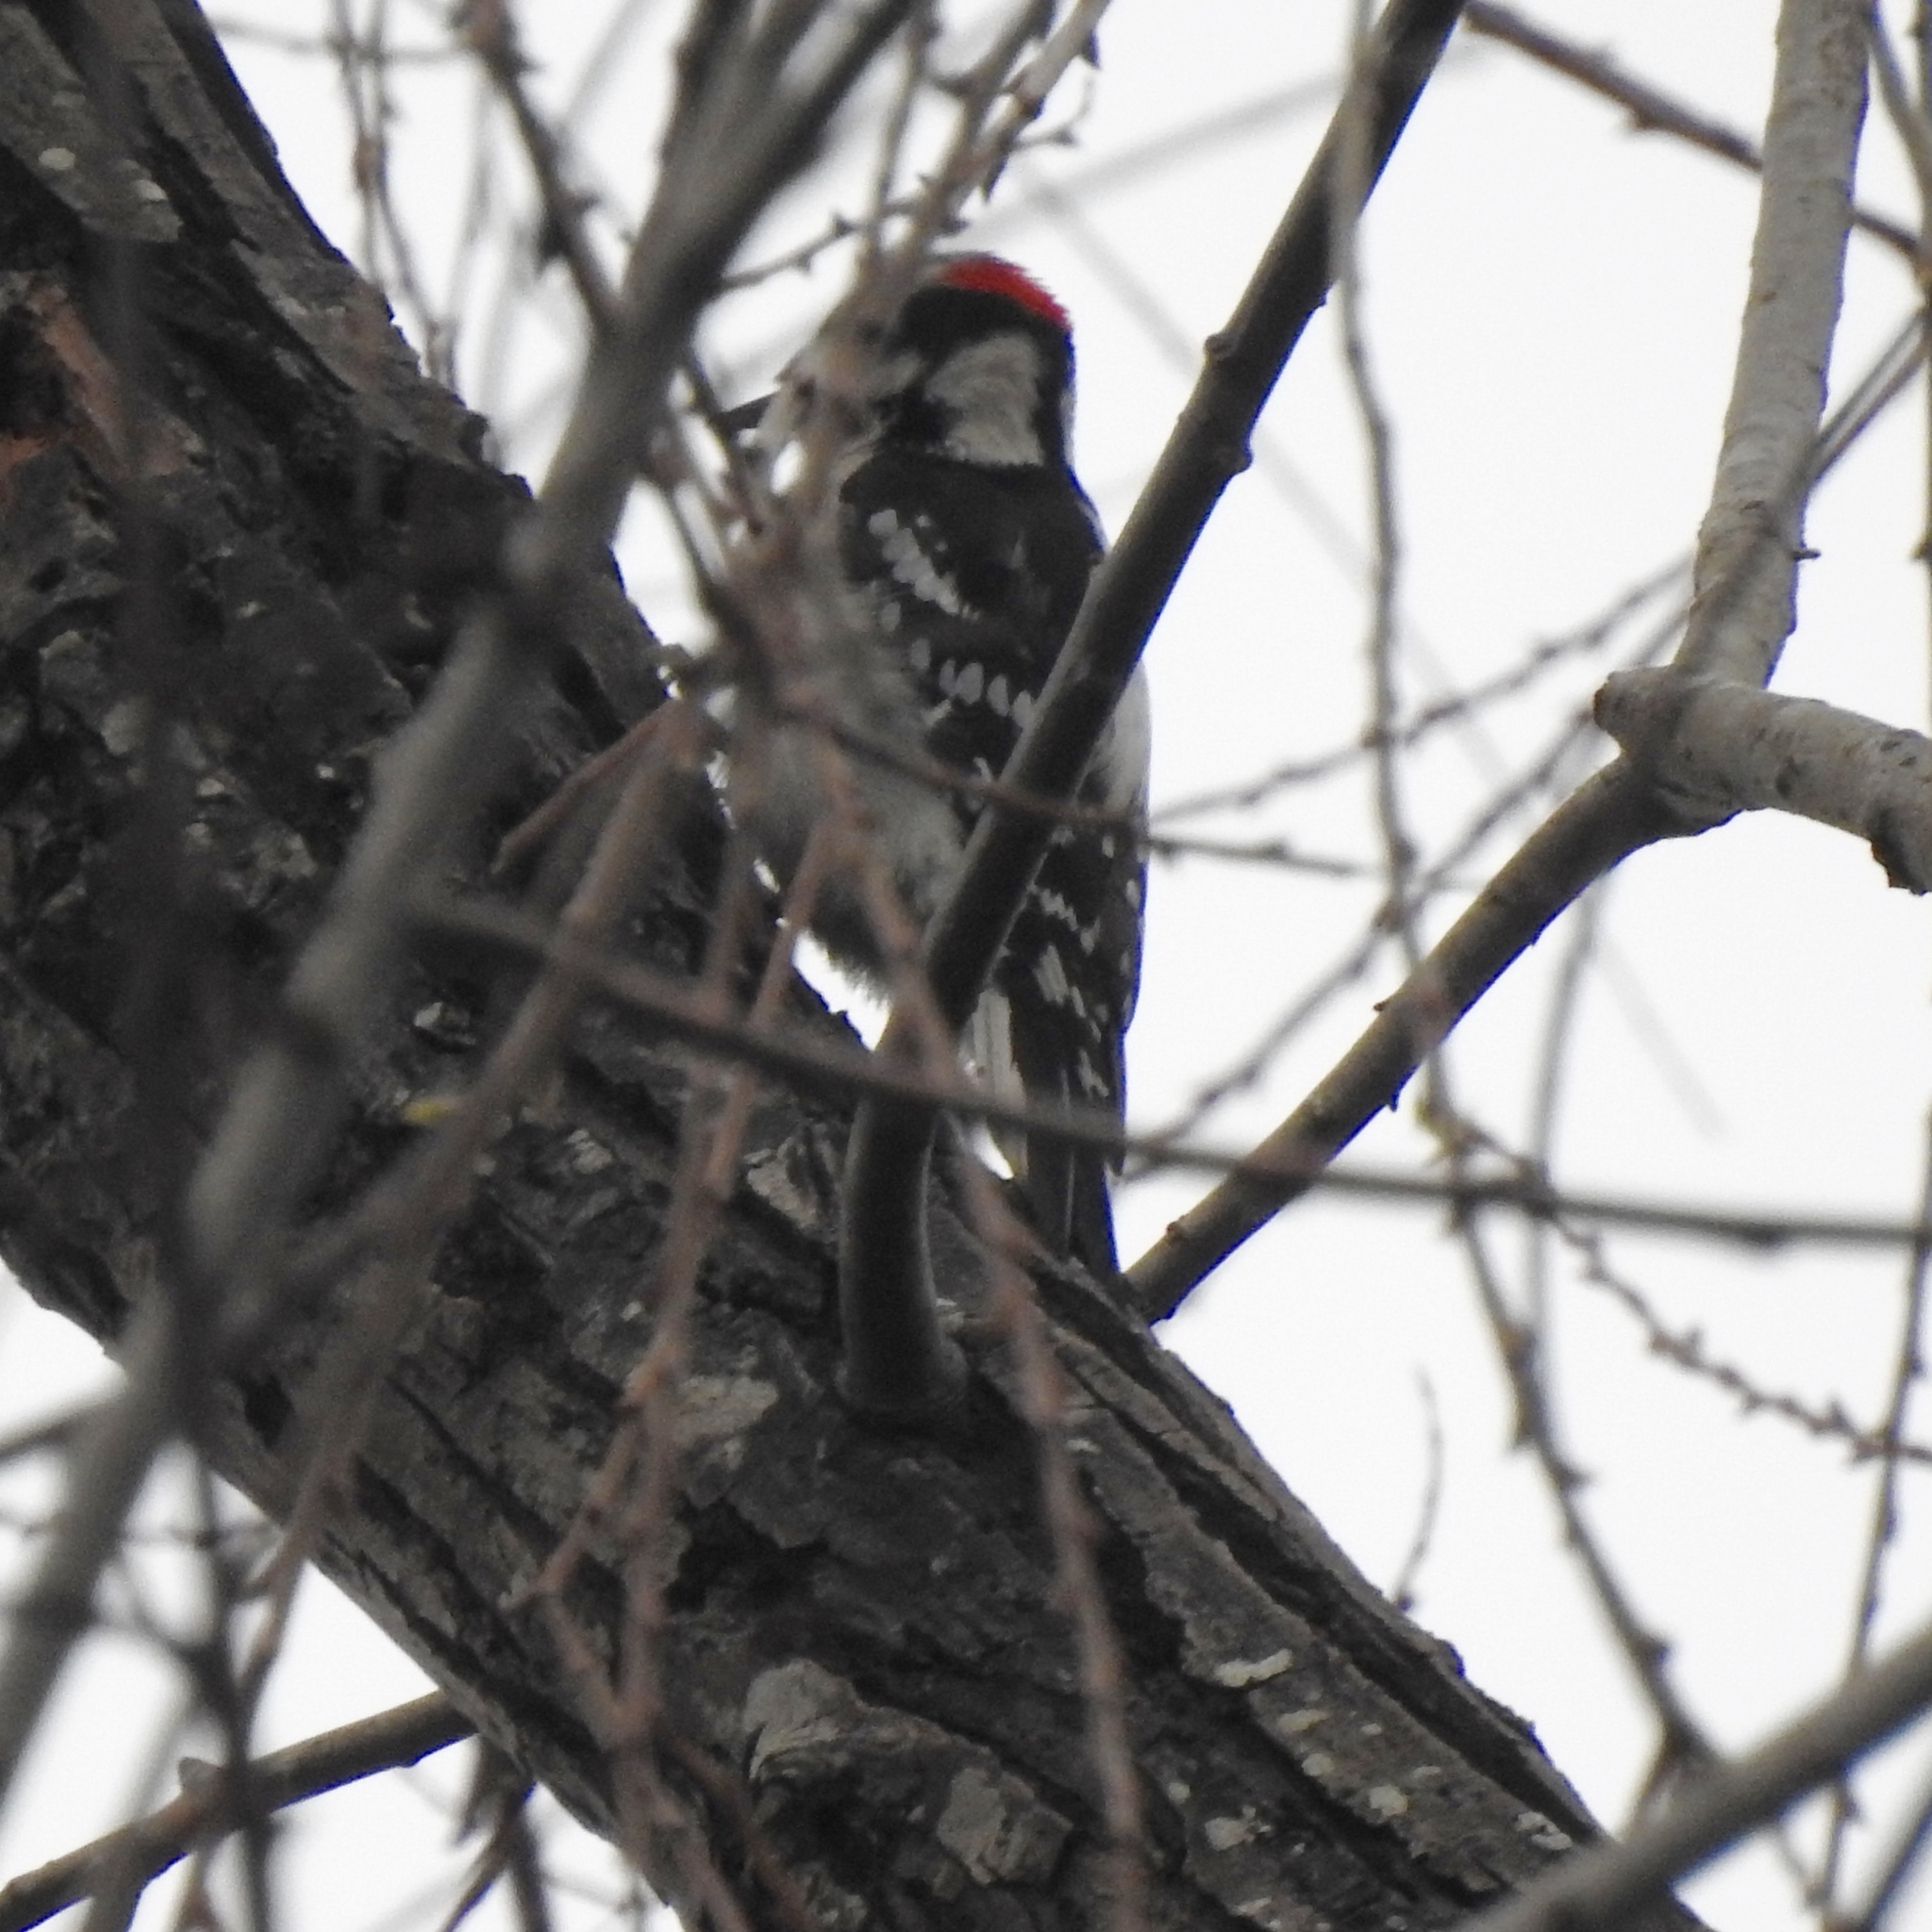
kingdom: Animalia
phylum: Chordata
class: Aves
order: Piciformes
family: Picidae
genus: Dryobates
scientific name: Dryobates pubescens
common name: Downy woodpecker
